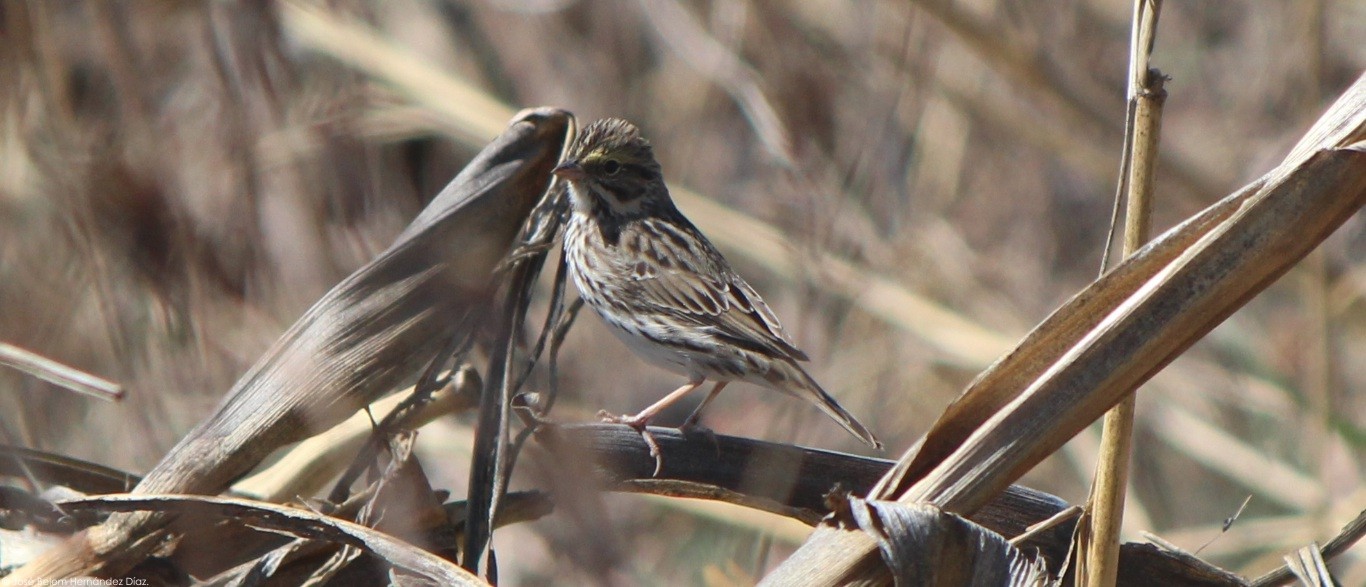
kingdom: Animalia
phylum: Chordata
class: Aves
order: Passeriformes
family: Passerellidae
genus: Passerculus
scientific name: Passerculus sandwichensis
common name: Savannah sparrow
